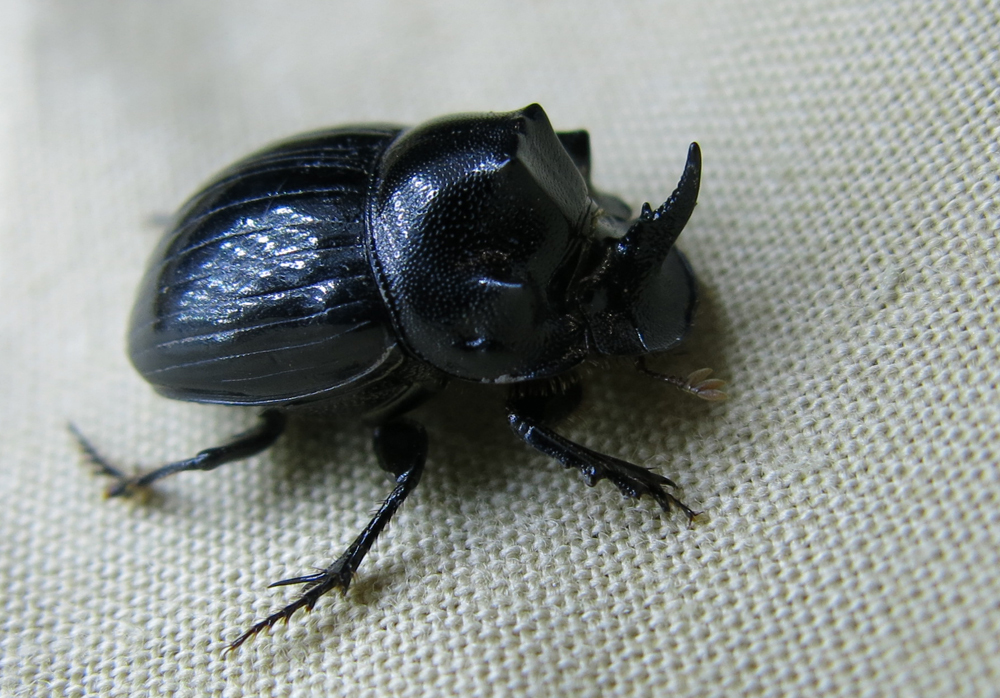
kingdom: Animalia
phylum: Arthropoda
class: Insecta
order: Coleoptera
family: Scarabaeidae
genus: Copris
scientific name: Copris elphenor
